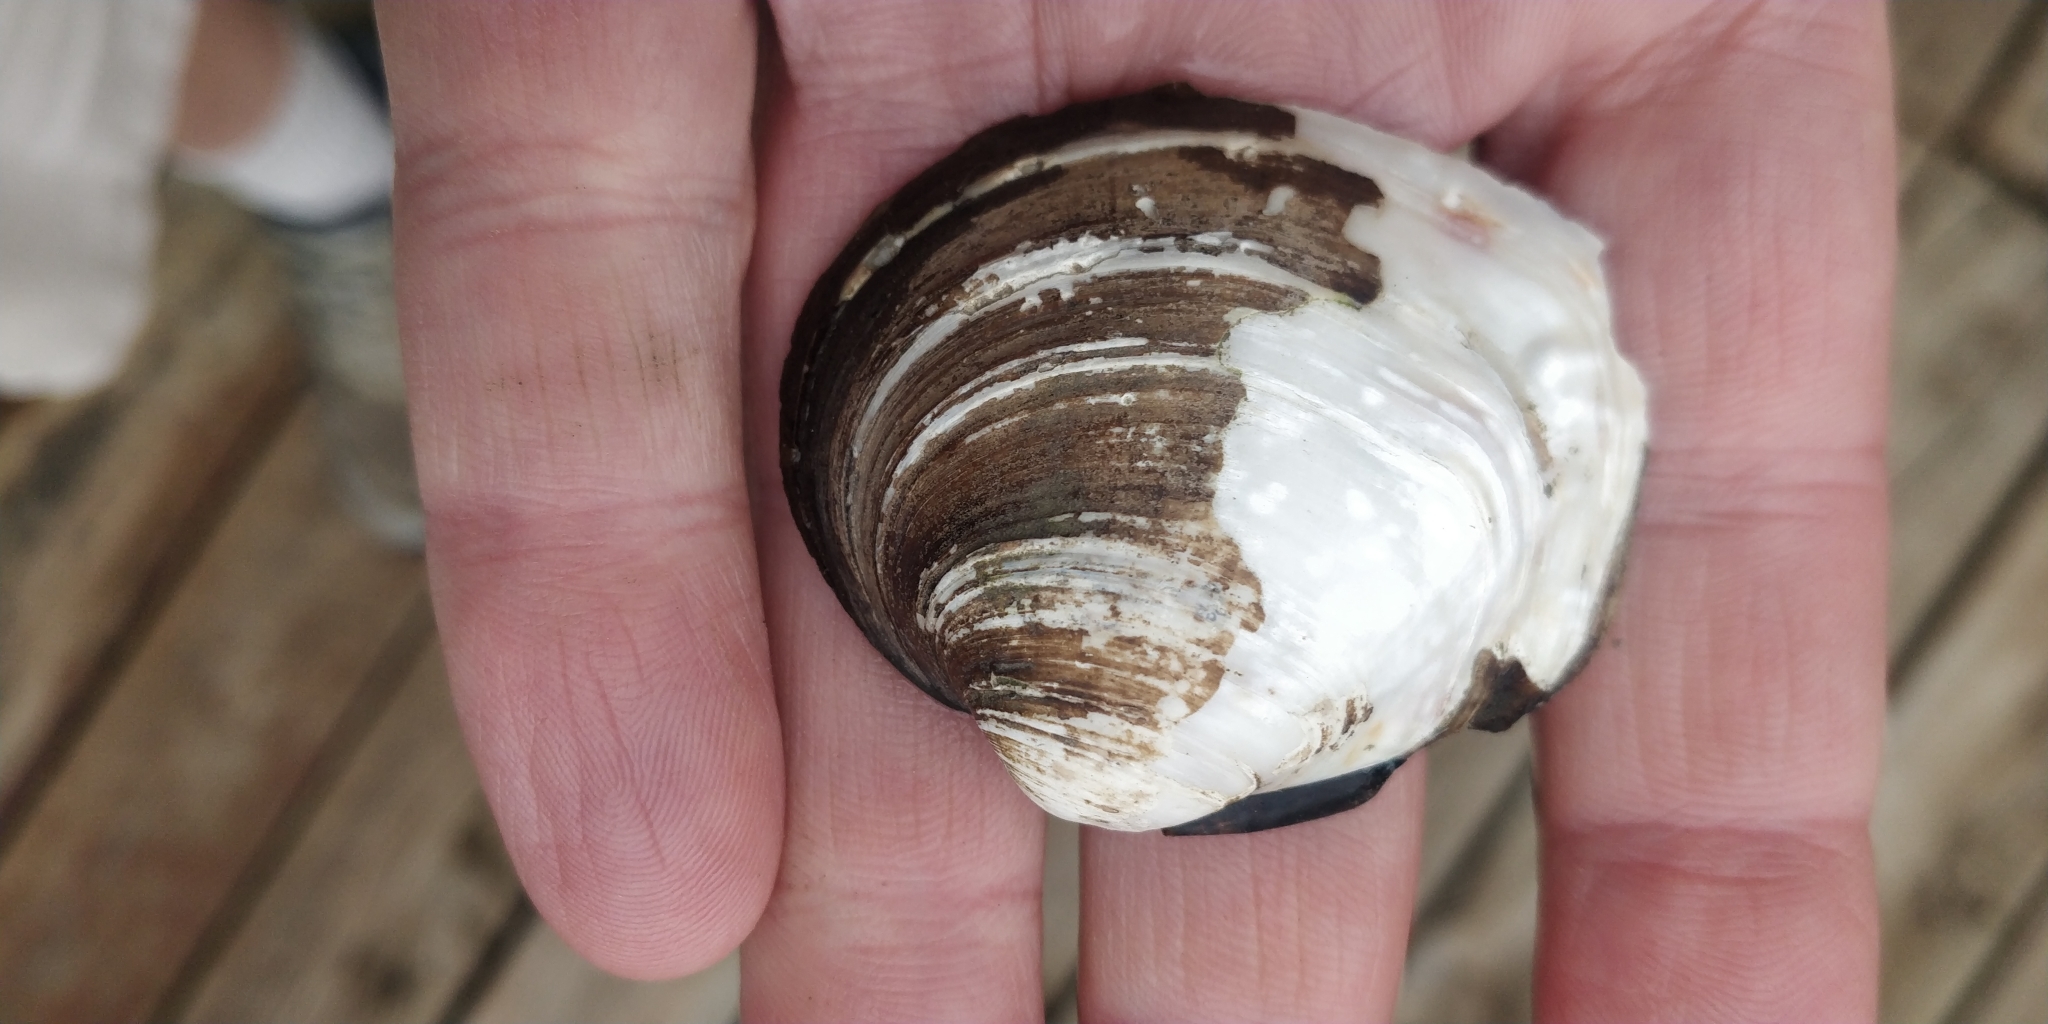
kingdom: Animalia
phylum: Mollusca
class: Bivalvia
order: Unionida
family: Unionidae
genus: Cyclonaias
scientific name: Cyclonaias pustulosa
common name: Pimpleback
